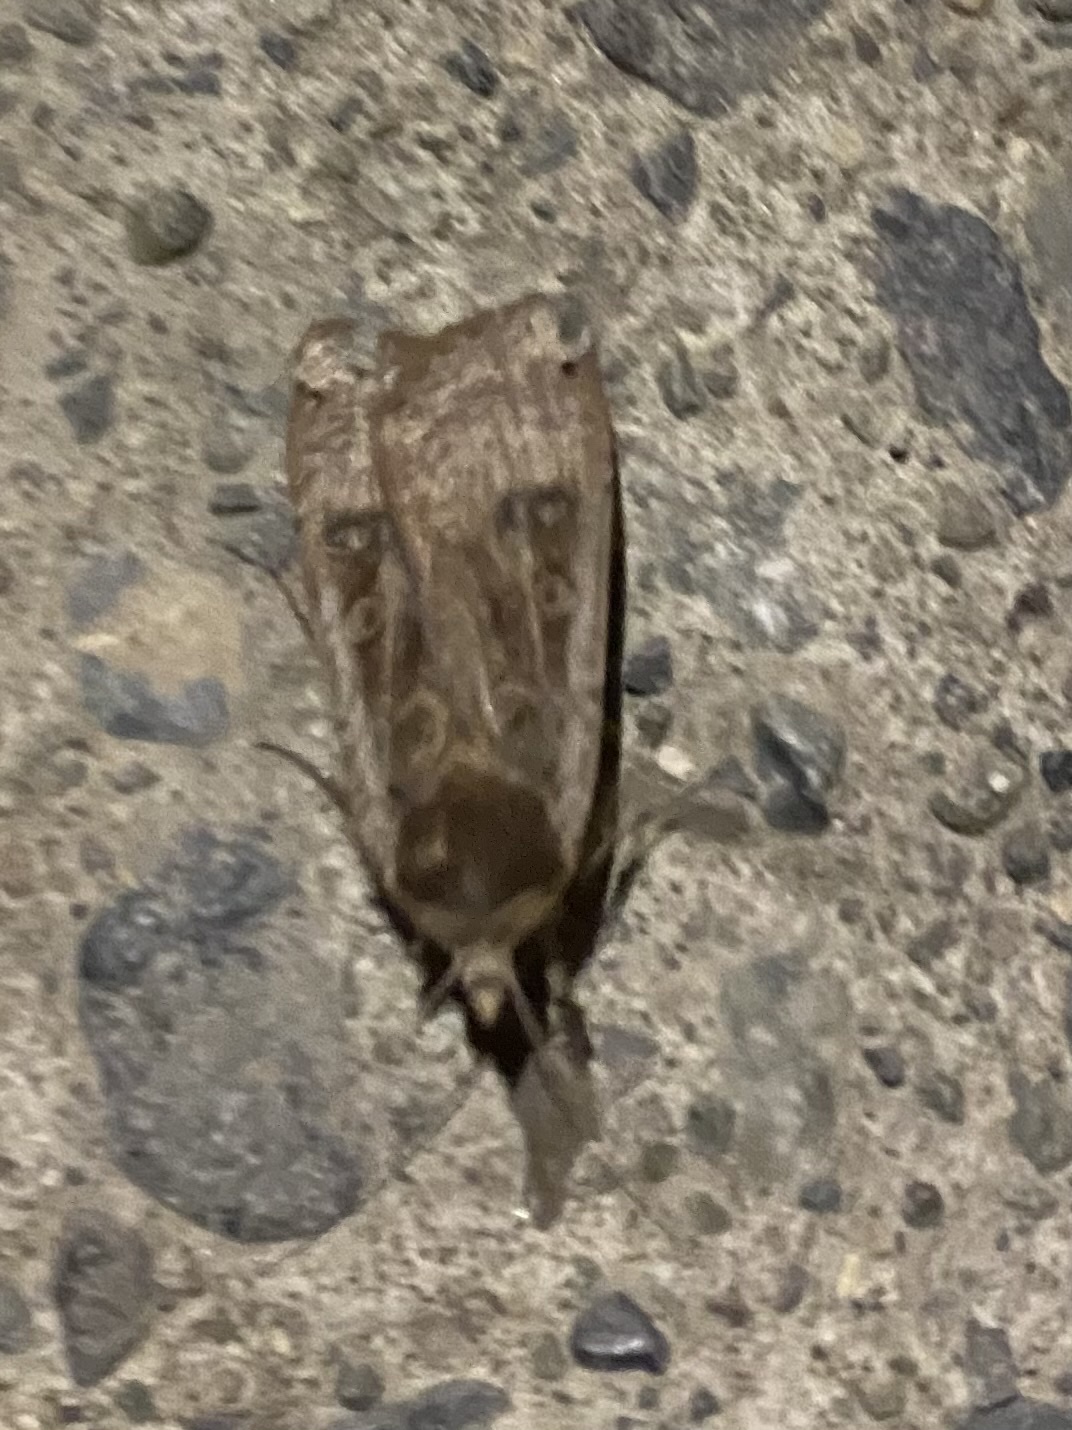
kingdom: Animalia
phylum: Arthropoda
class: Insecta
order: Lepidoptera
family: Noctuidae
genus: Noctua
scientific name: Noctua pronuba
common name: Large yellow underwing
